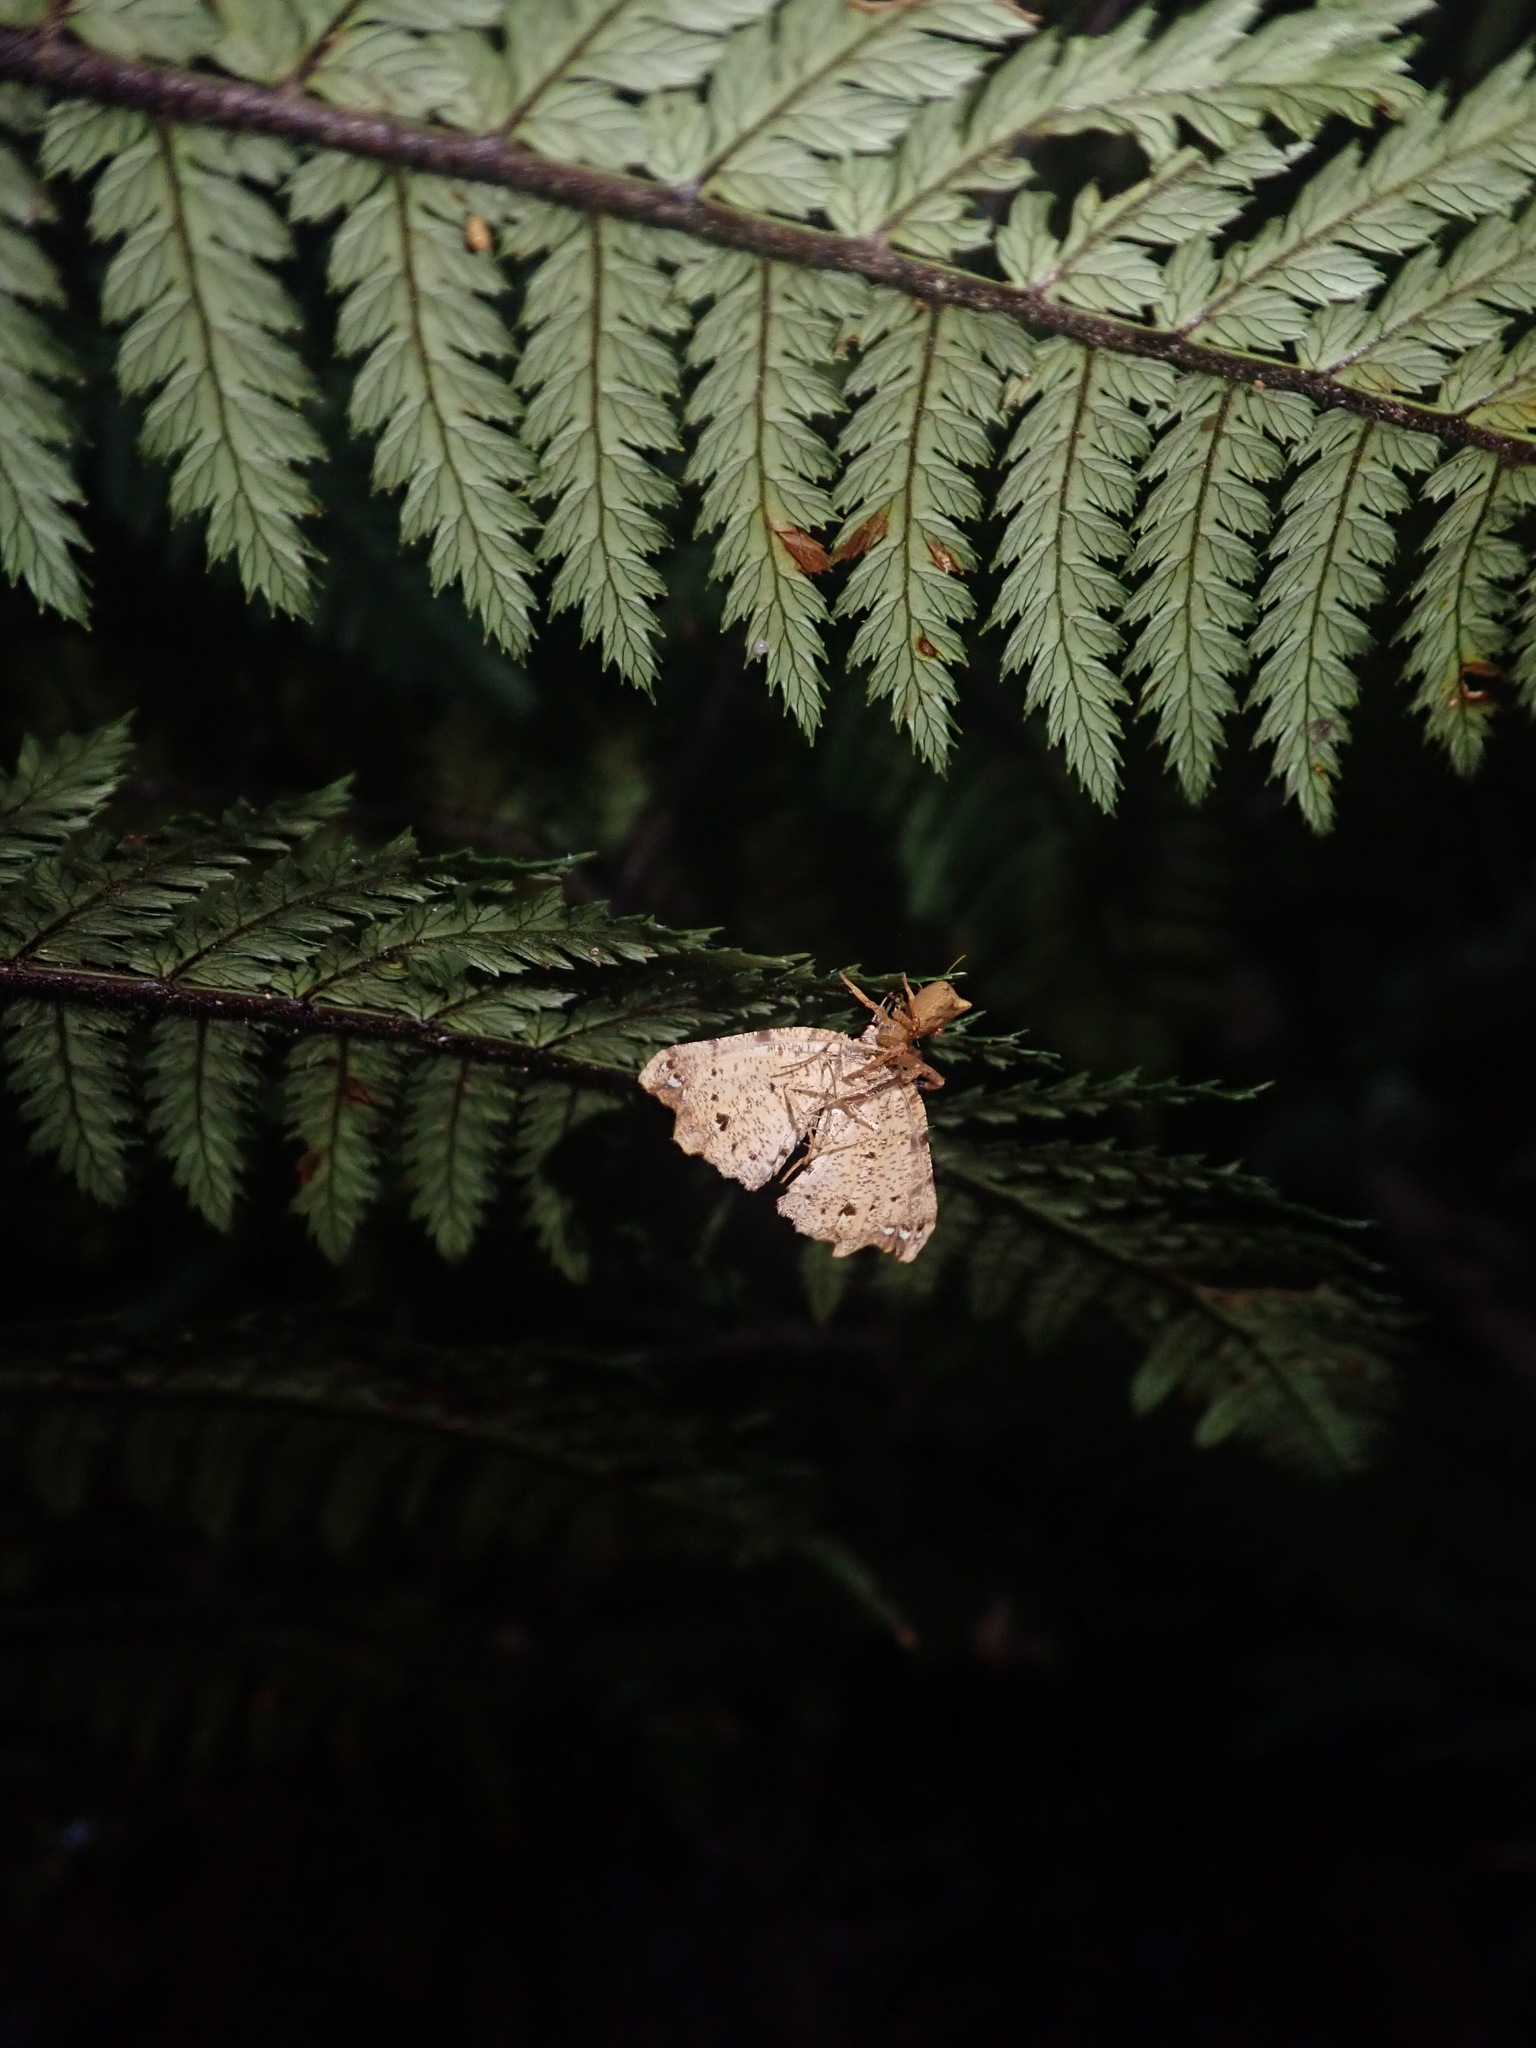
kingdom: Animalia
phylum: Arthropoda
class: Insecta
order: Lepidoptera
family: Geometridae
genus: Chalastra
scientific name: Chalastra pellurgata
